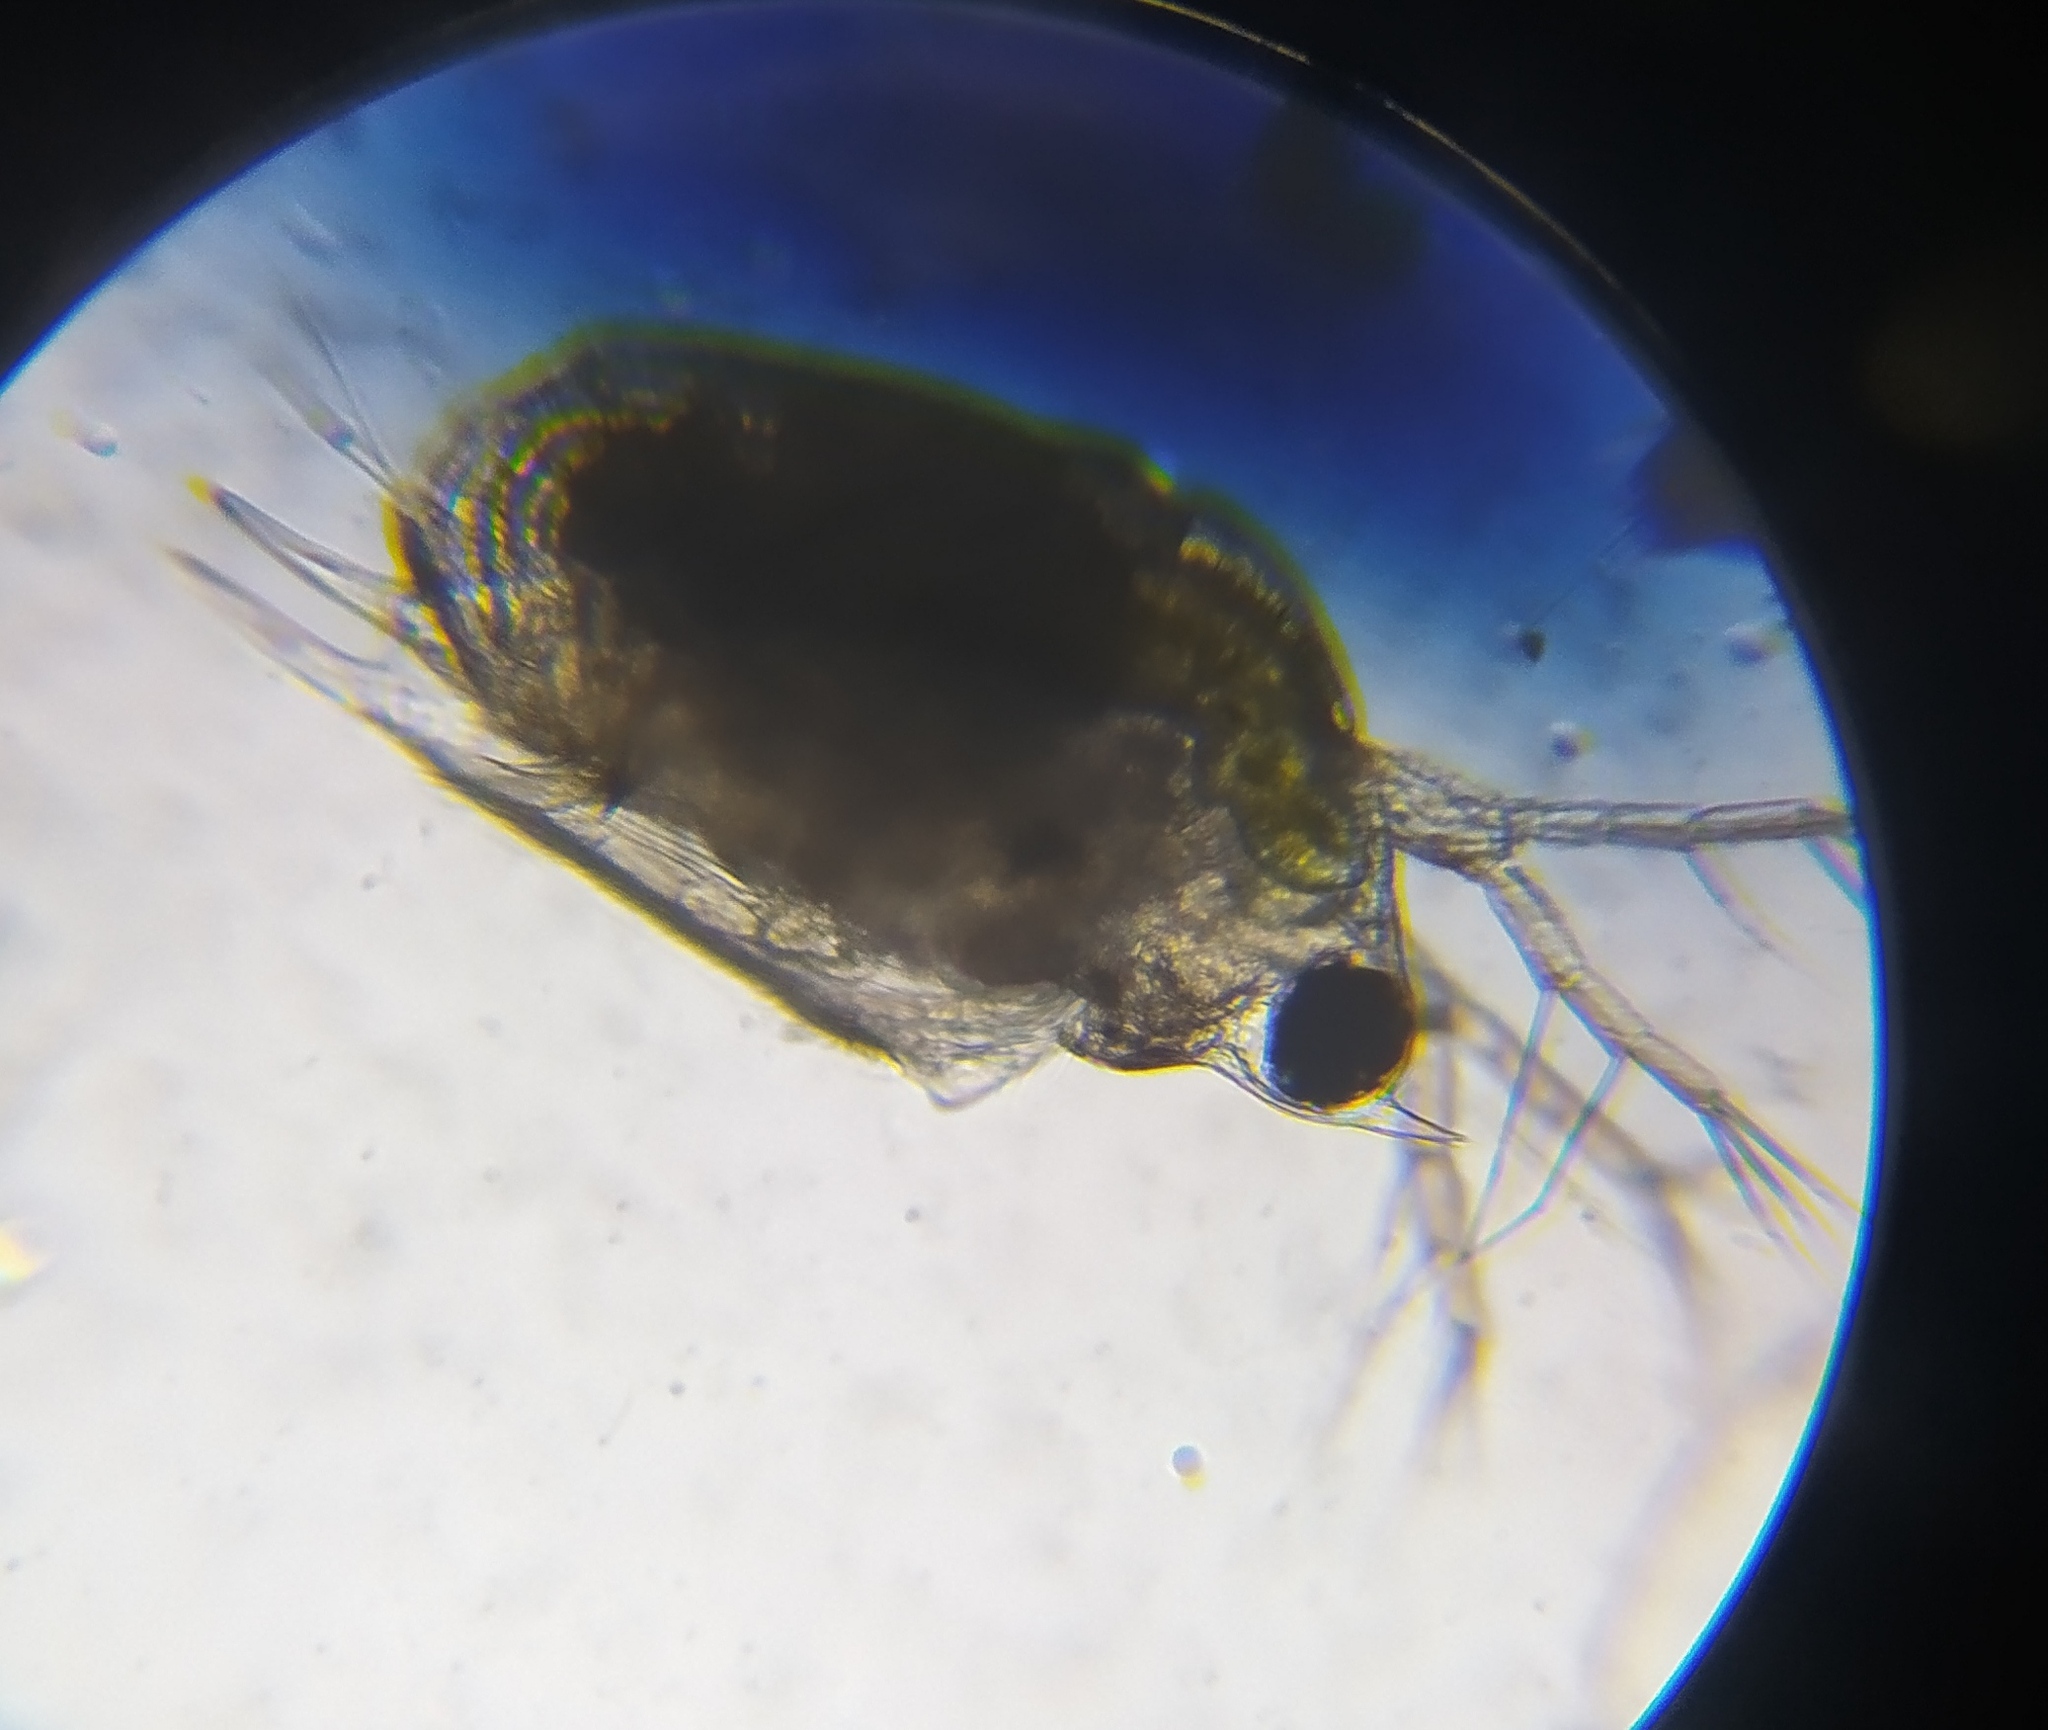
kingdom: Animalia
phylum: Arthropoda
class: Branchiopoda
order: Diplostraca
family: Daphniidae
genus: Scapholeberis
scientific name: Scapholeberis mucronata
